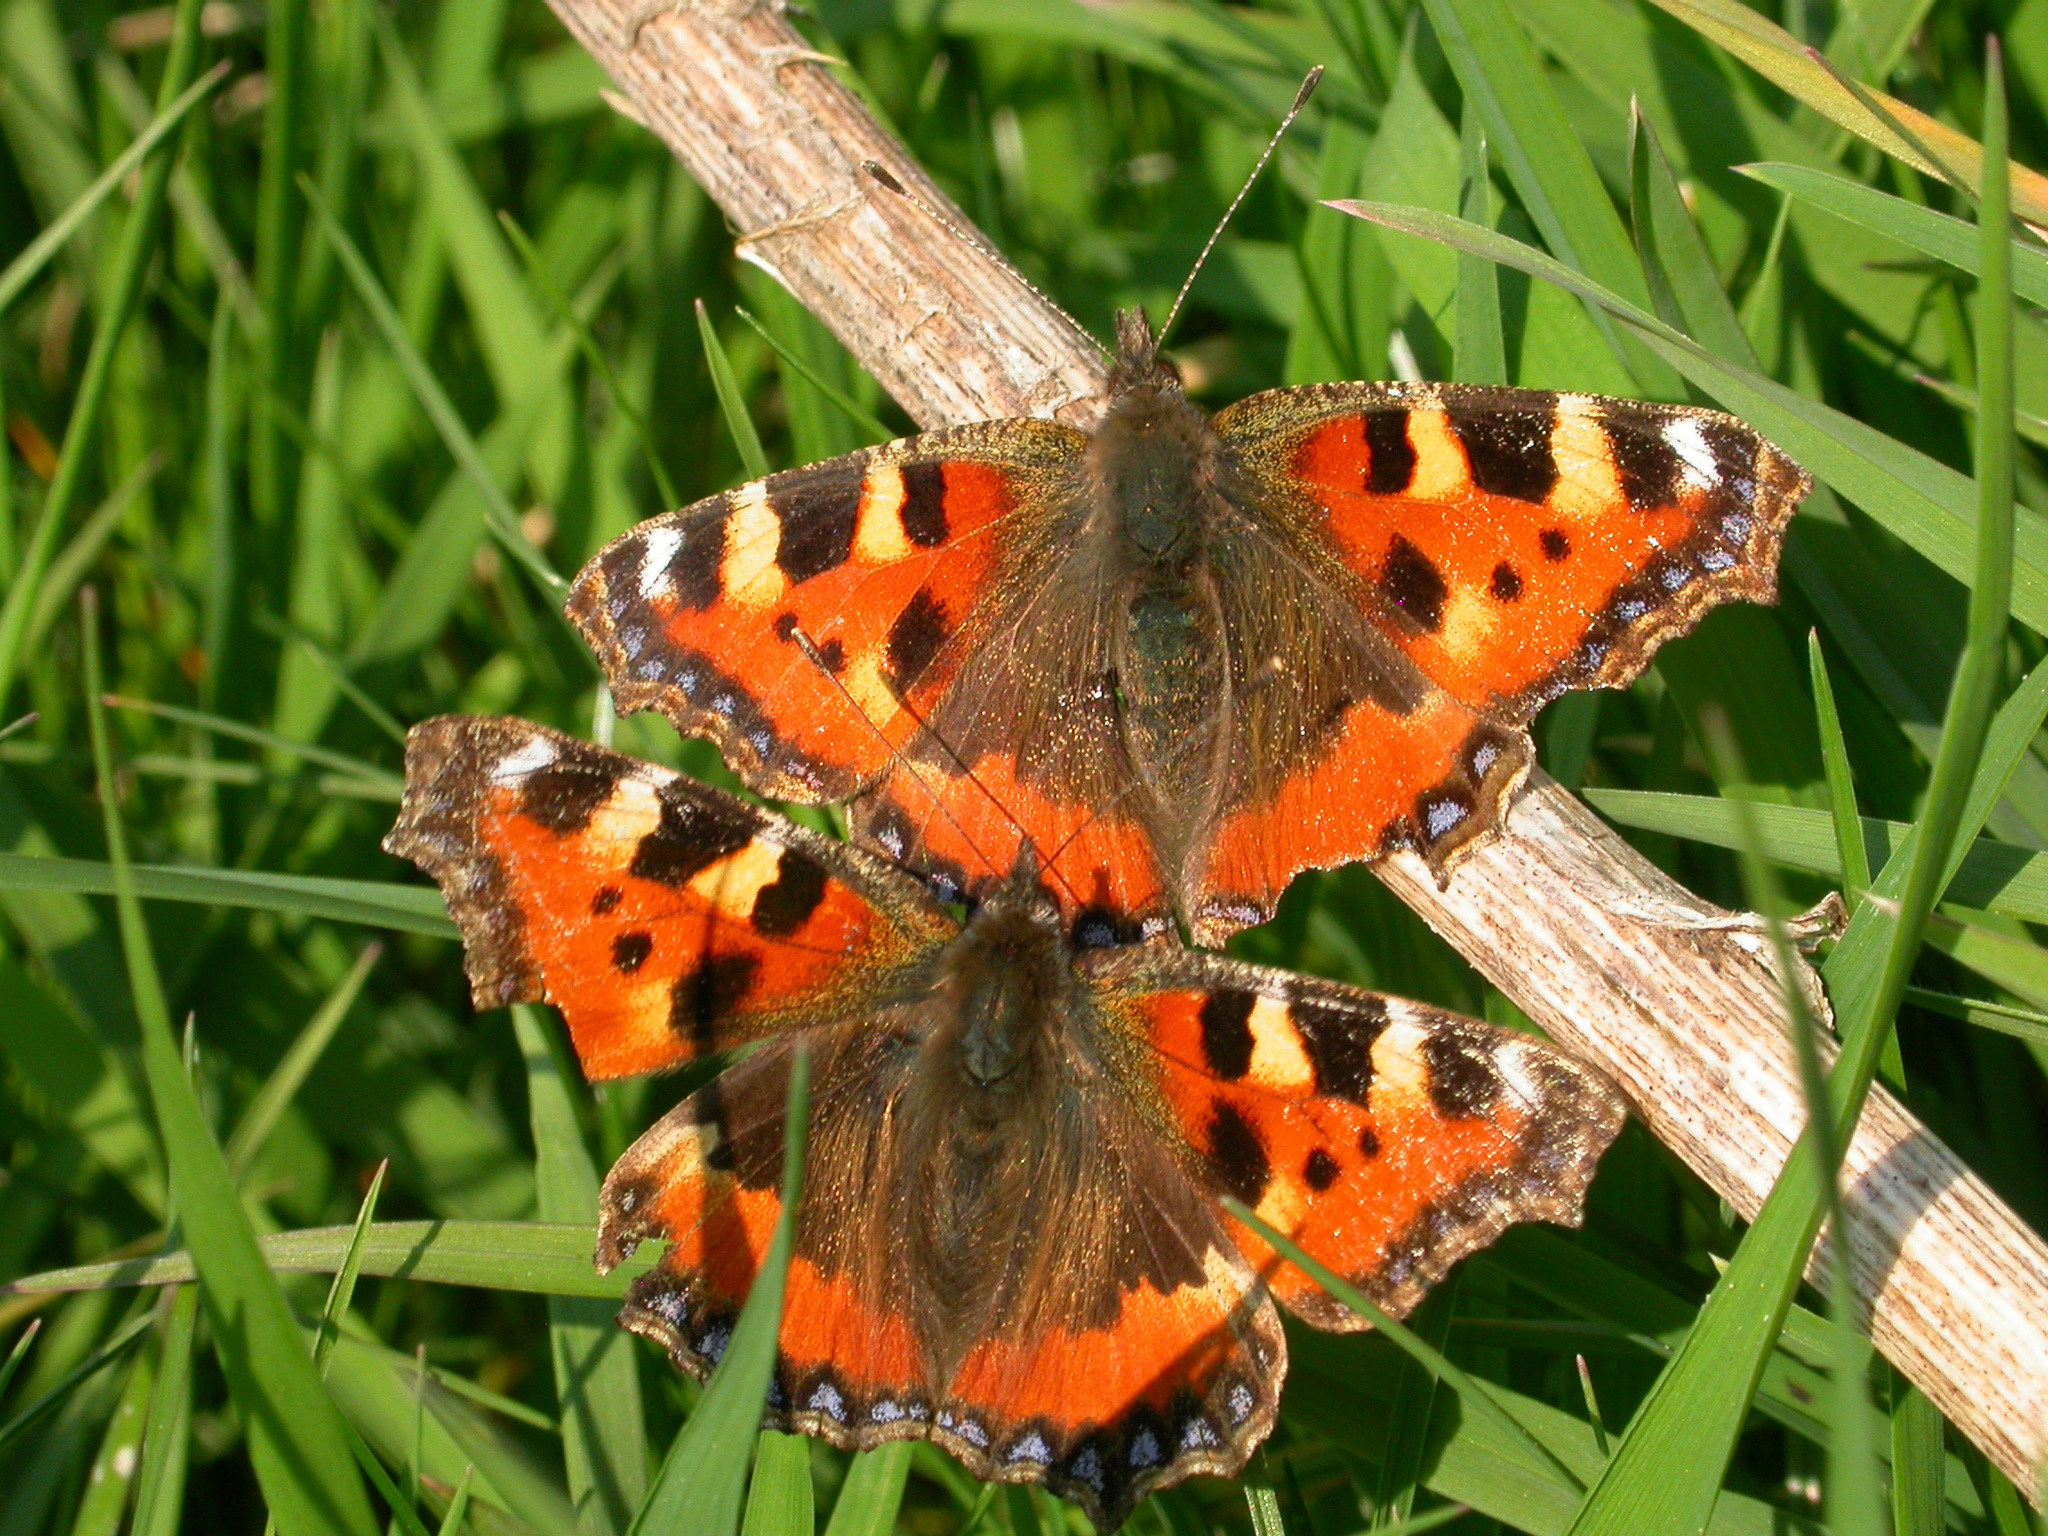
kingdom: Animalia
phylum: Arthropoda
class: Insecta
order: Lepidoptera
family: Nymphalidae
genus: Aglais
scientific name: Aglais urticae
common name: Small tortoiseshell
